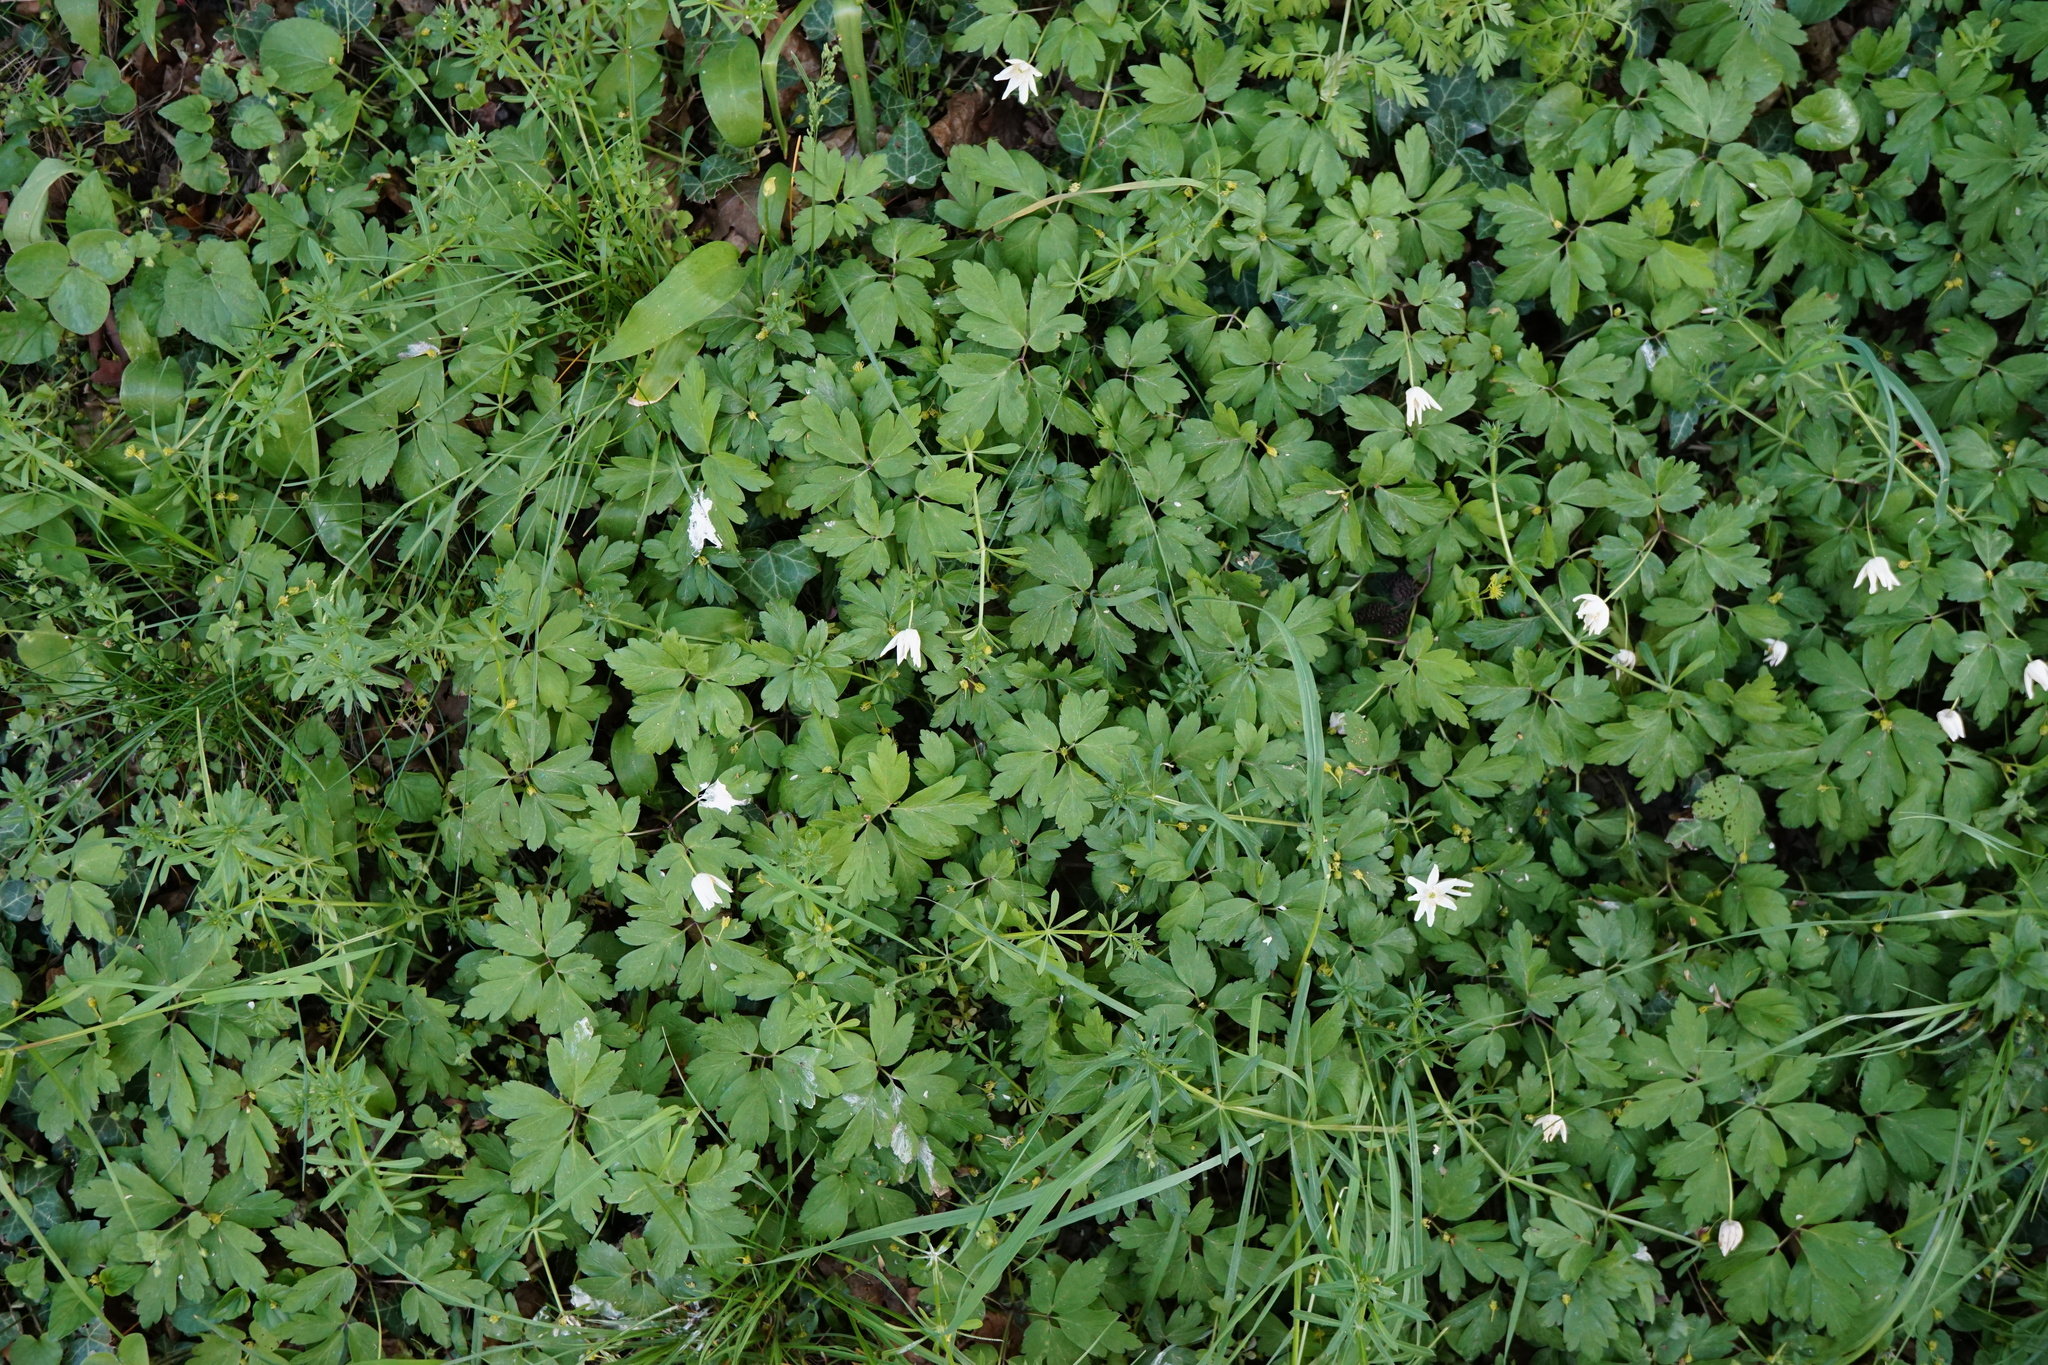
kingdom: Plantae
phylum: Tracheophyta
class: Magnoliopsida
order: Ranunculales
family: Ranunculaceae
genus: Anemone
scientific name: Anemone nemorosa
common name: Wood anemone
